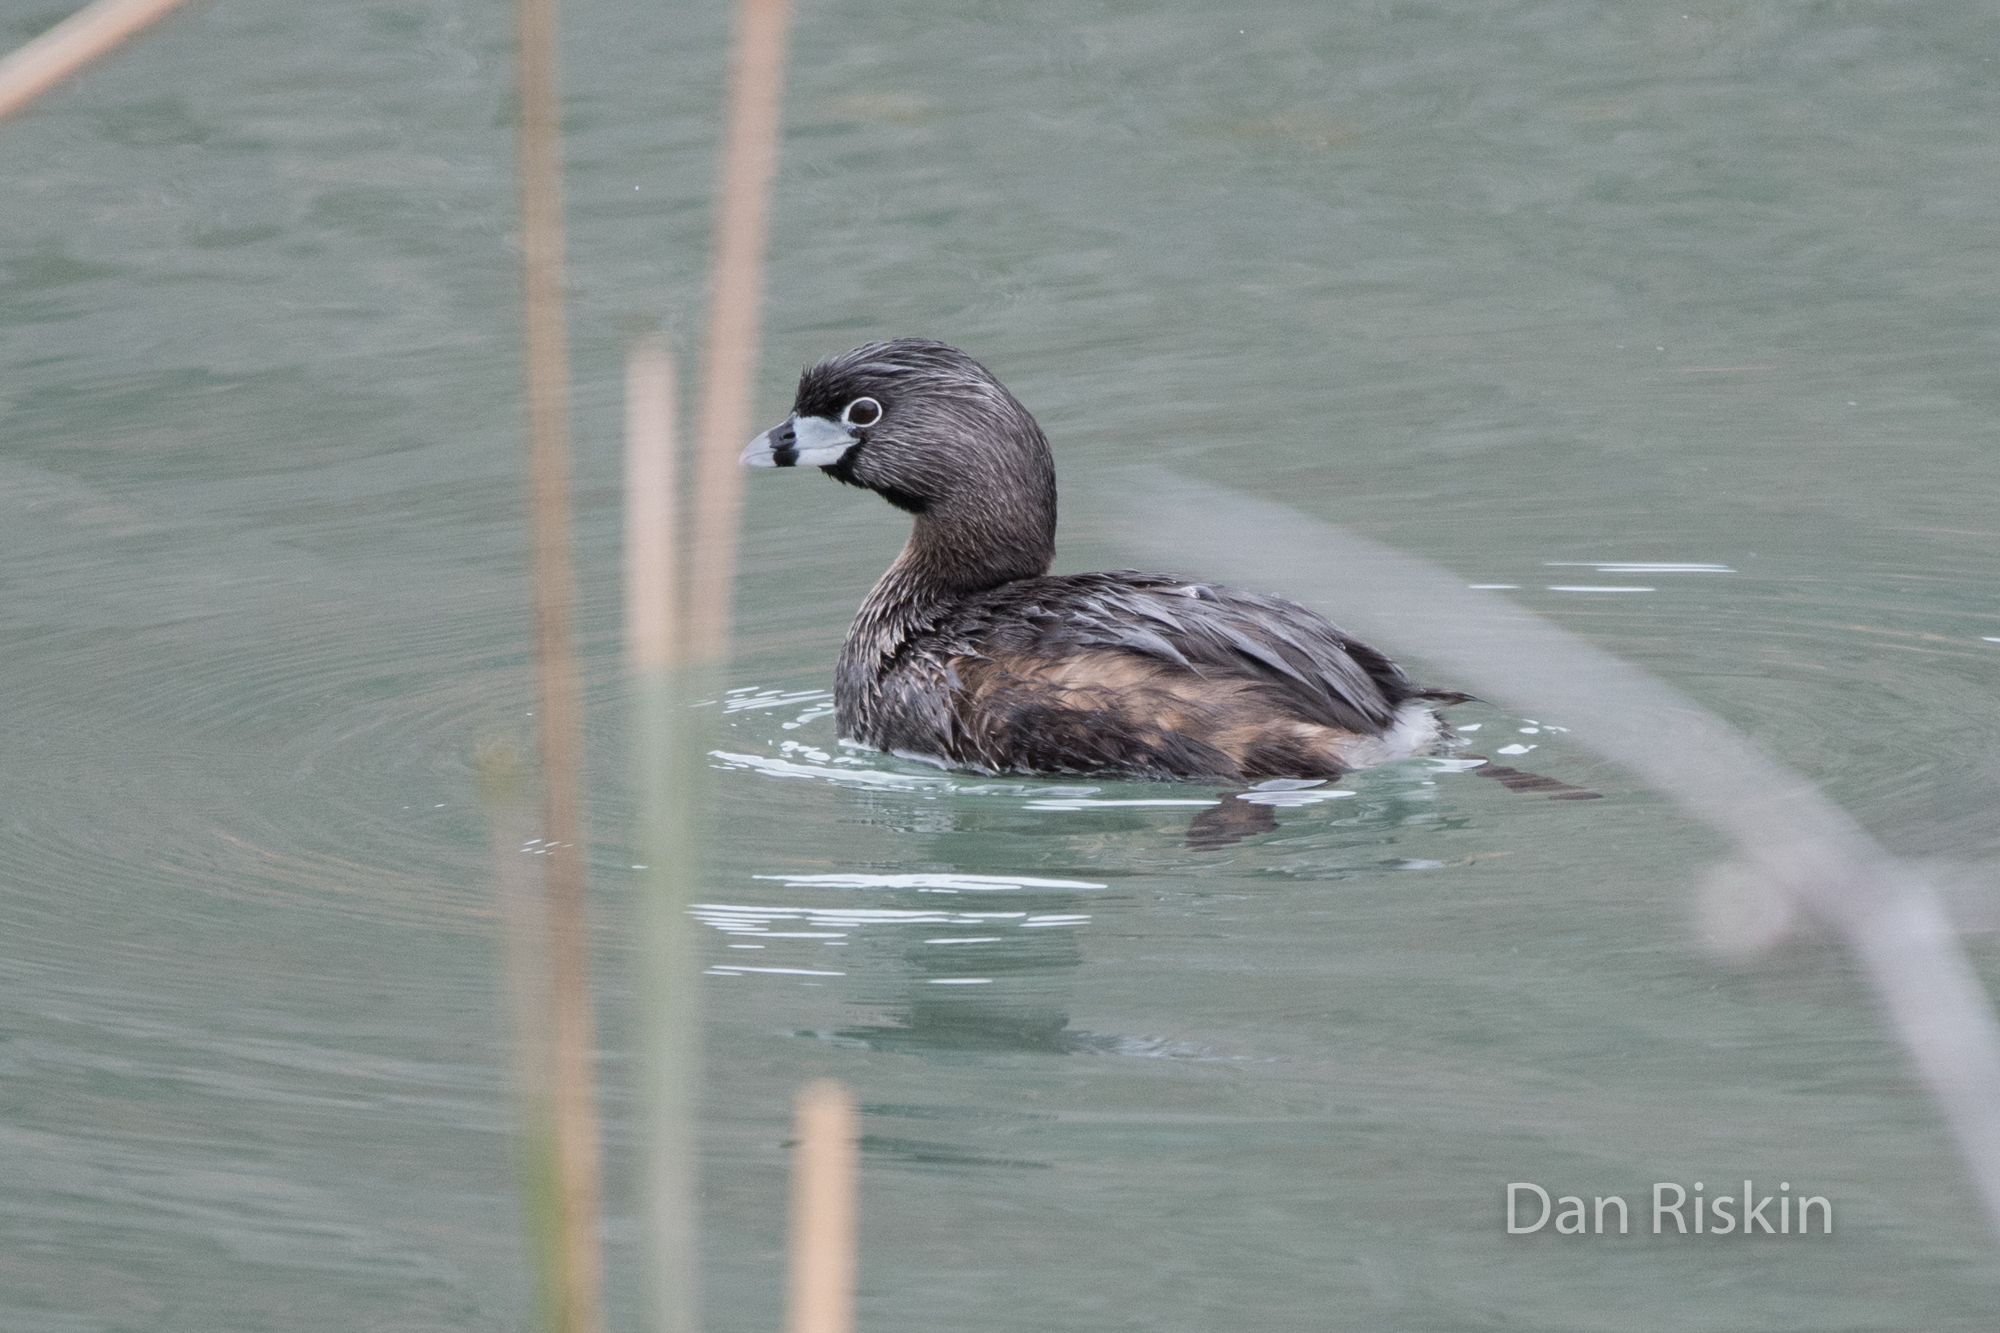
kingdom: Animalia
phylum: Chordata
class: Aves
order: Podicipediformes
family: Podicipedidae
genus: Podilymbus
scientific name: Podilymbus podiceps
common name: Pied-billed grebe
